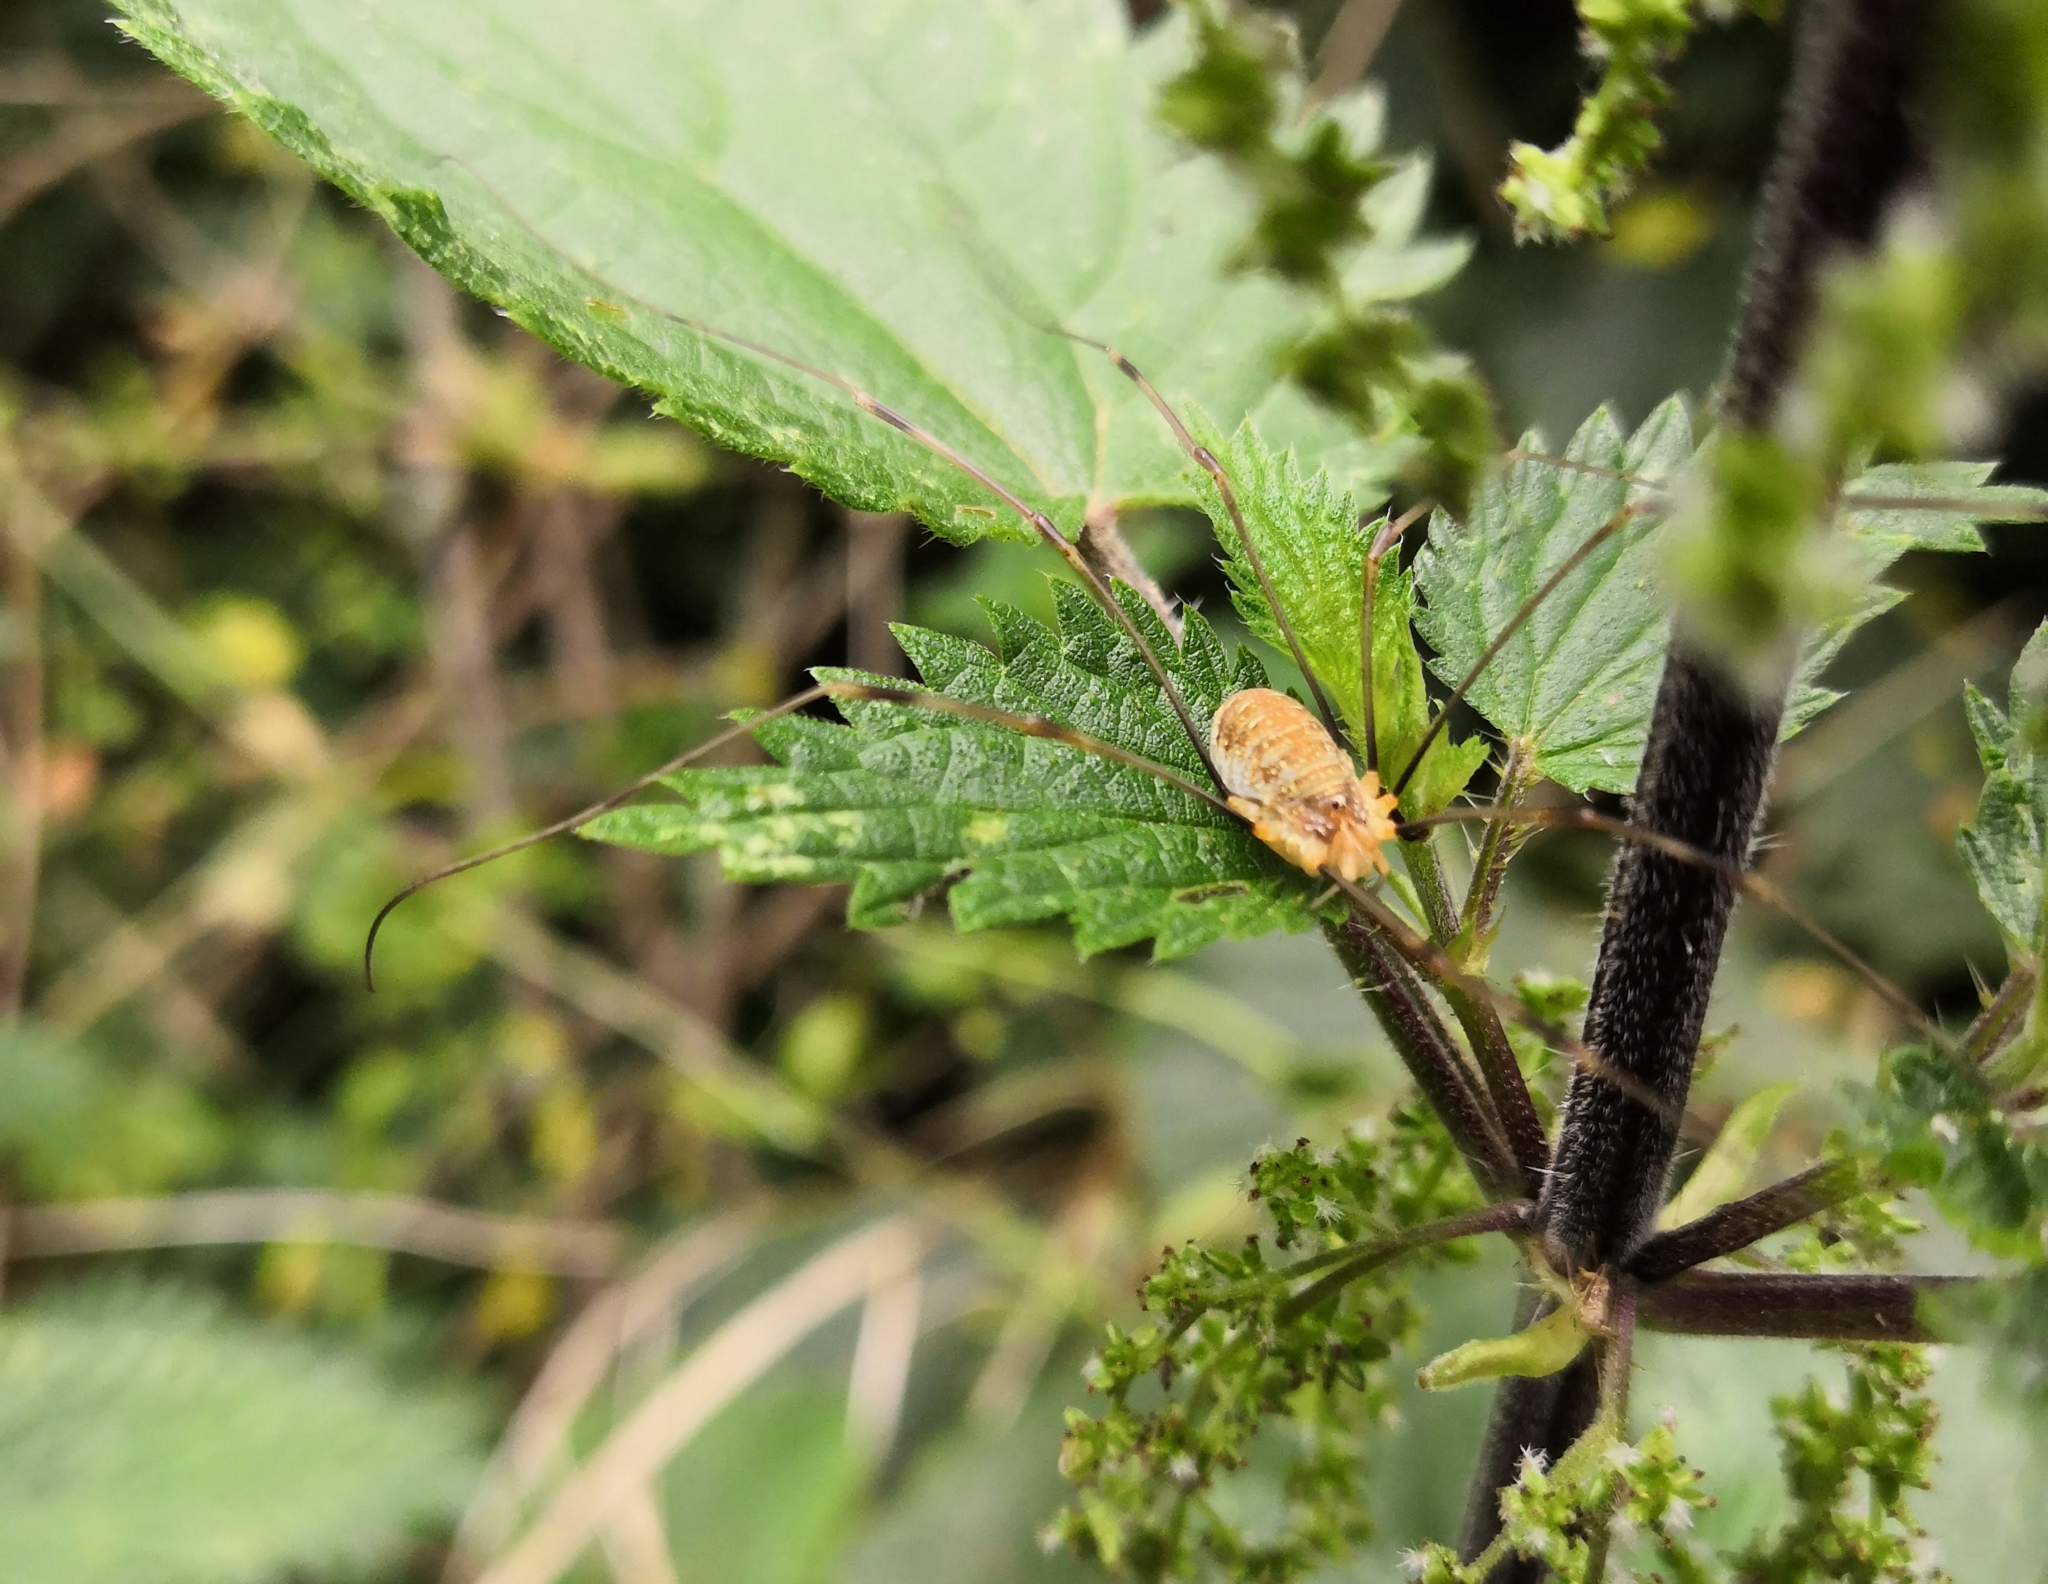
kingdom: Animalia
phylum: Arthropoda
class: Arachnida
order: Opiliones
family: Phalangiidae
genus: Opilio
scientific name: Opilio canestrinii
